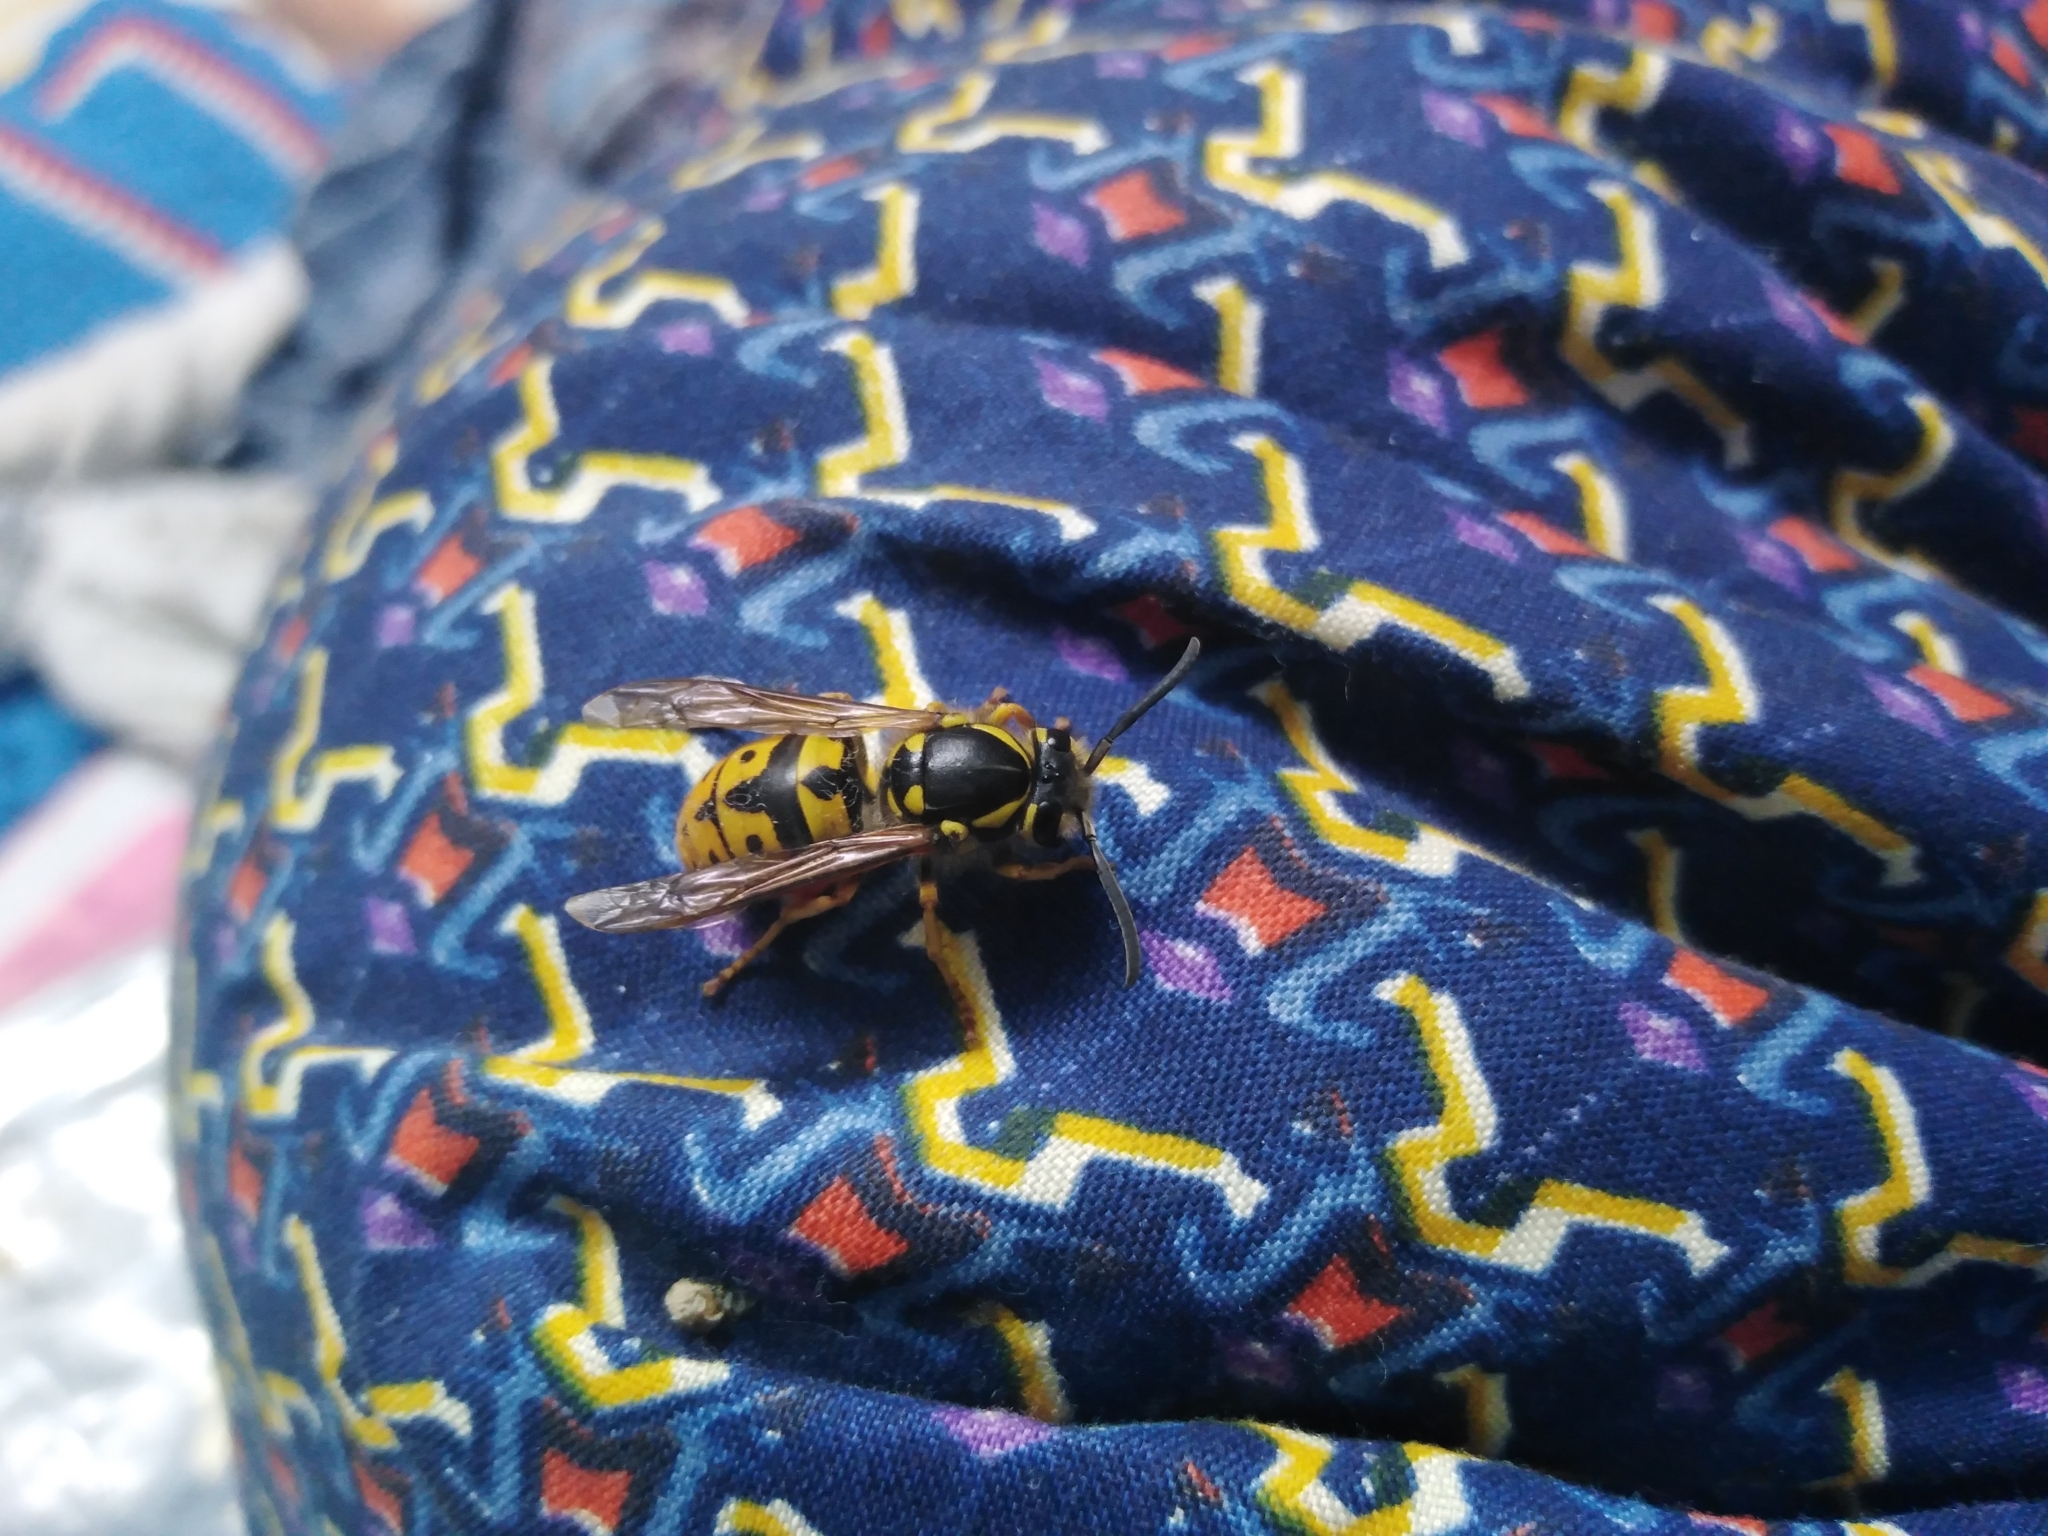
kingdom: Animalia
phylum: Arthropoda
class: Insecta
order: Hymenoptera
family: Vespidae
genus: Vespula
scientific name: Vespula germanica
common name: German wasp
